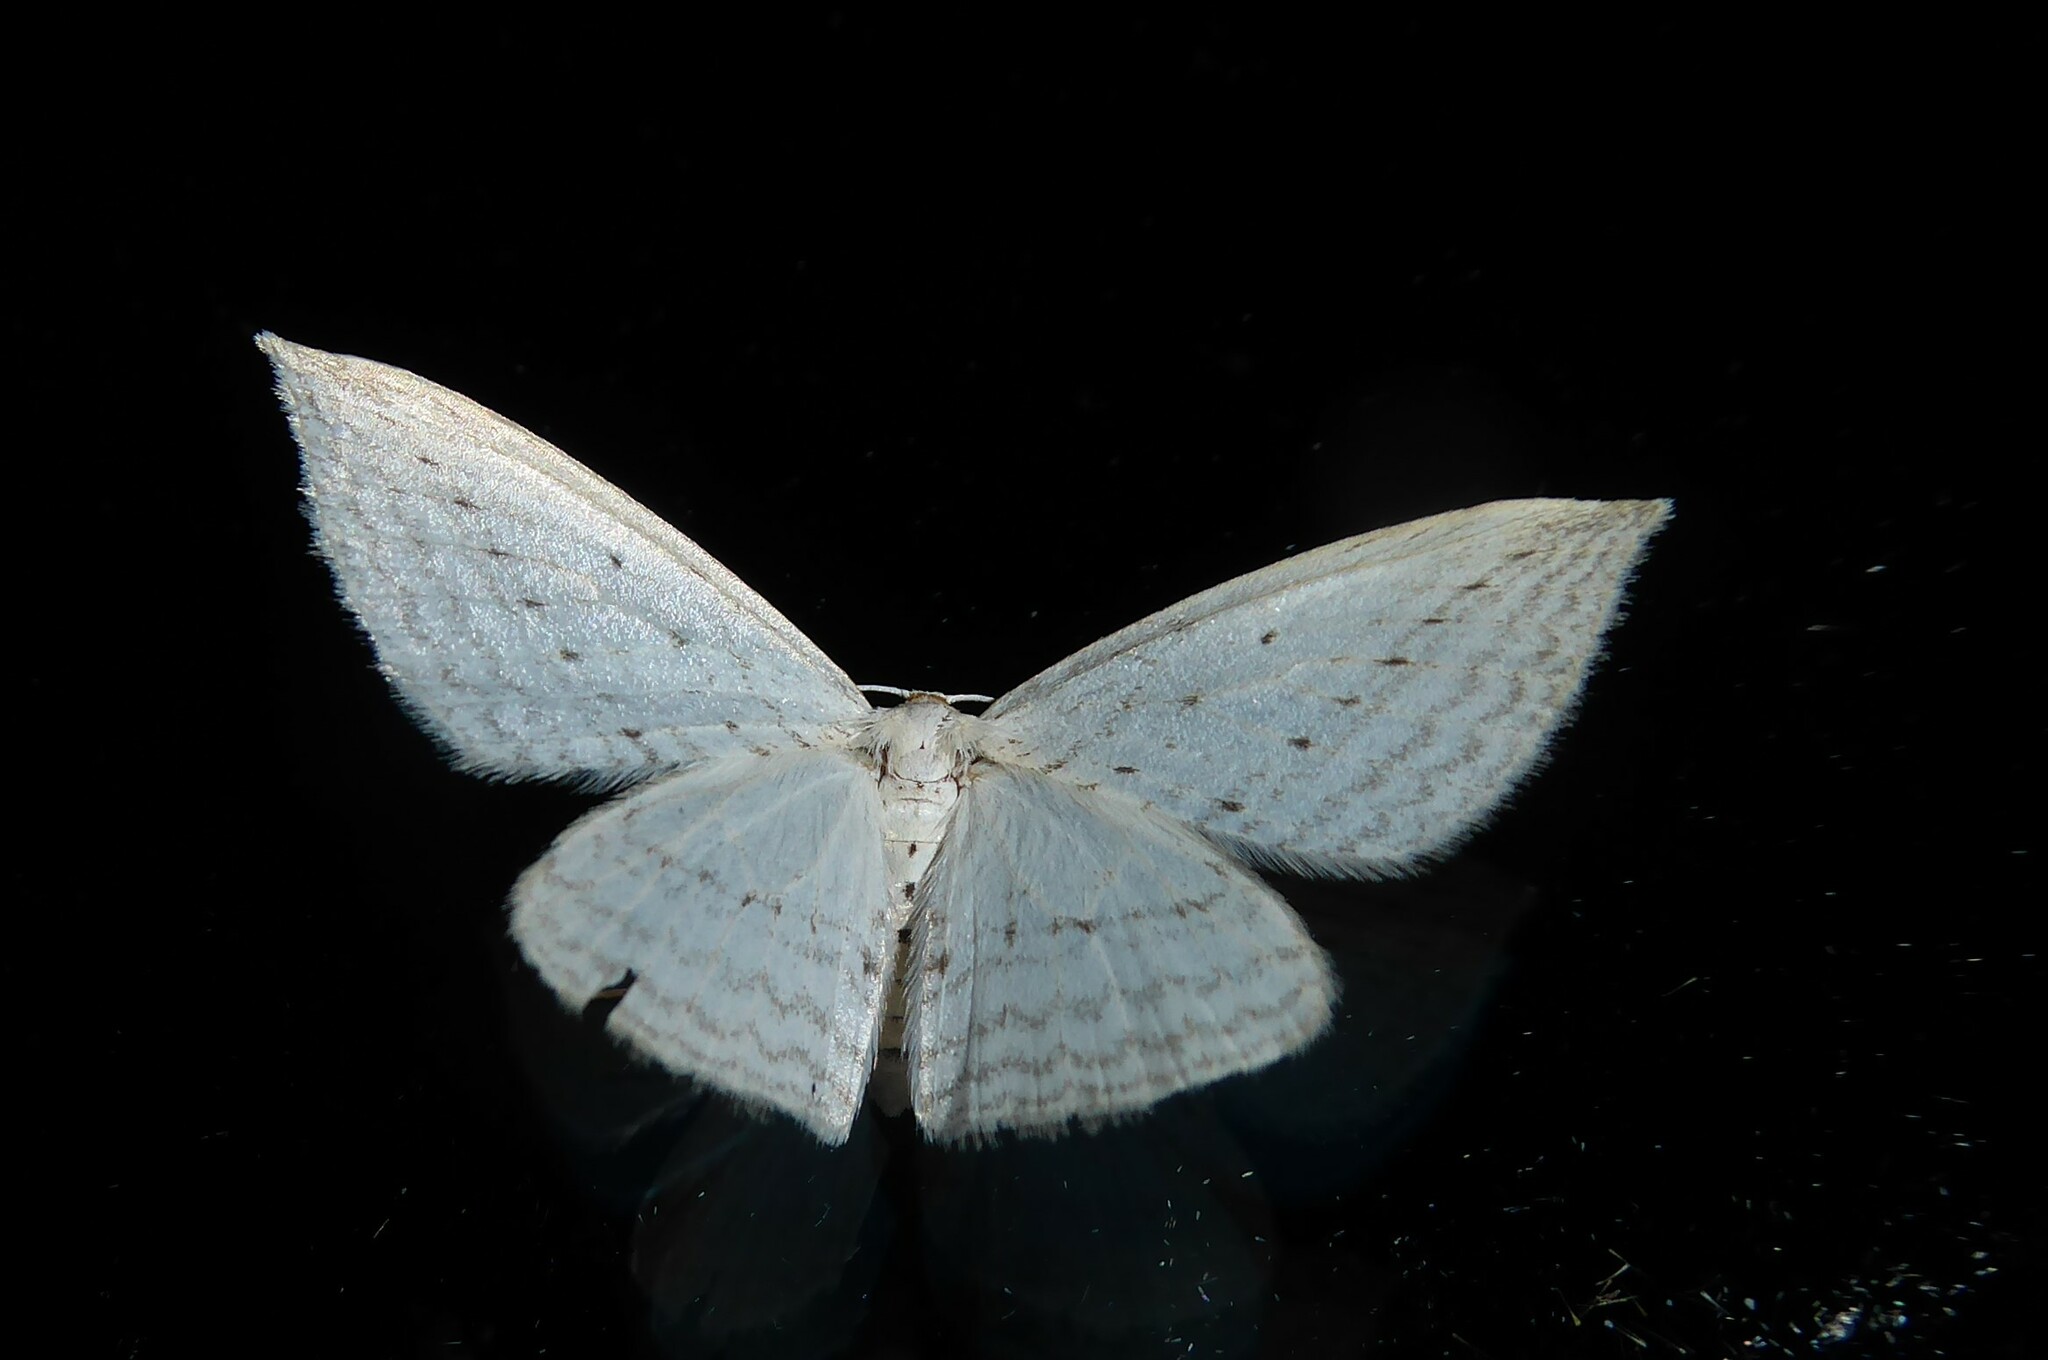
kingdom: Animalia
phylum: Arthropoda
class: Insecta
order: Lepidoptera
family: Geometridae
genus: Orthoclydon
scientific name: Orthoclydon praefectata
